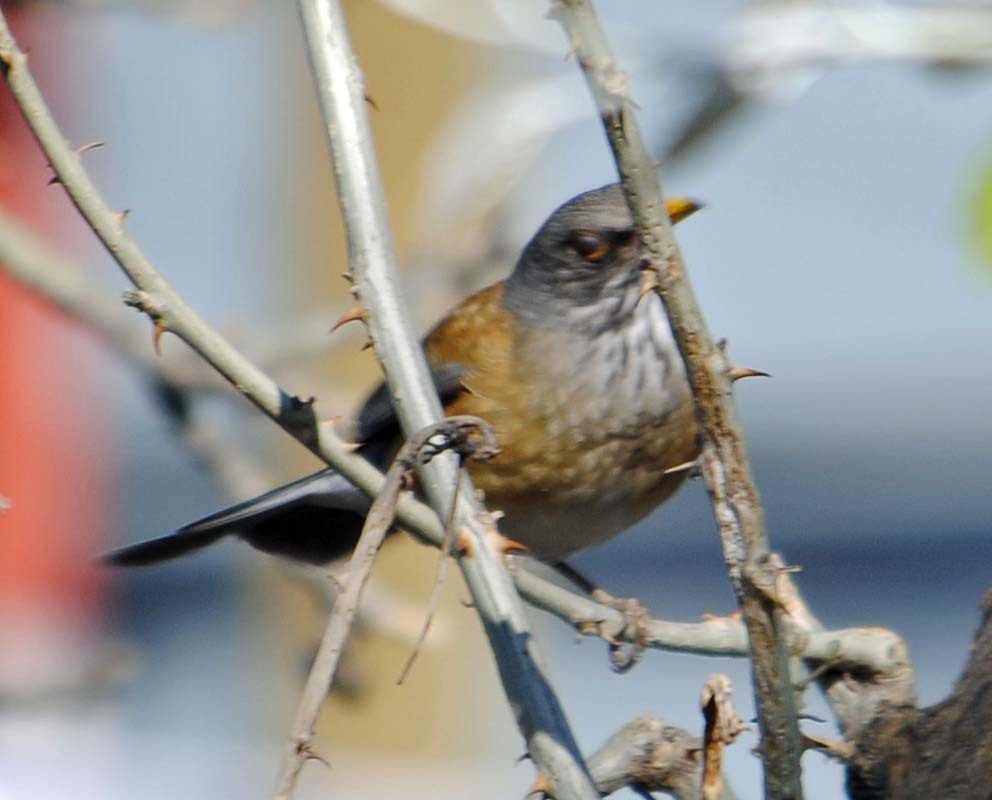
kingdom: Animalia
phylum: Chordata
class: Aves
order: Passeriformes
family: Turdidae
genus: Turdus
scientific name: Turdus rufopalliatus
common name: Rufous-backed robin
